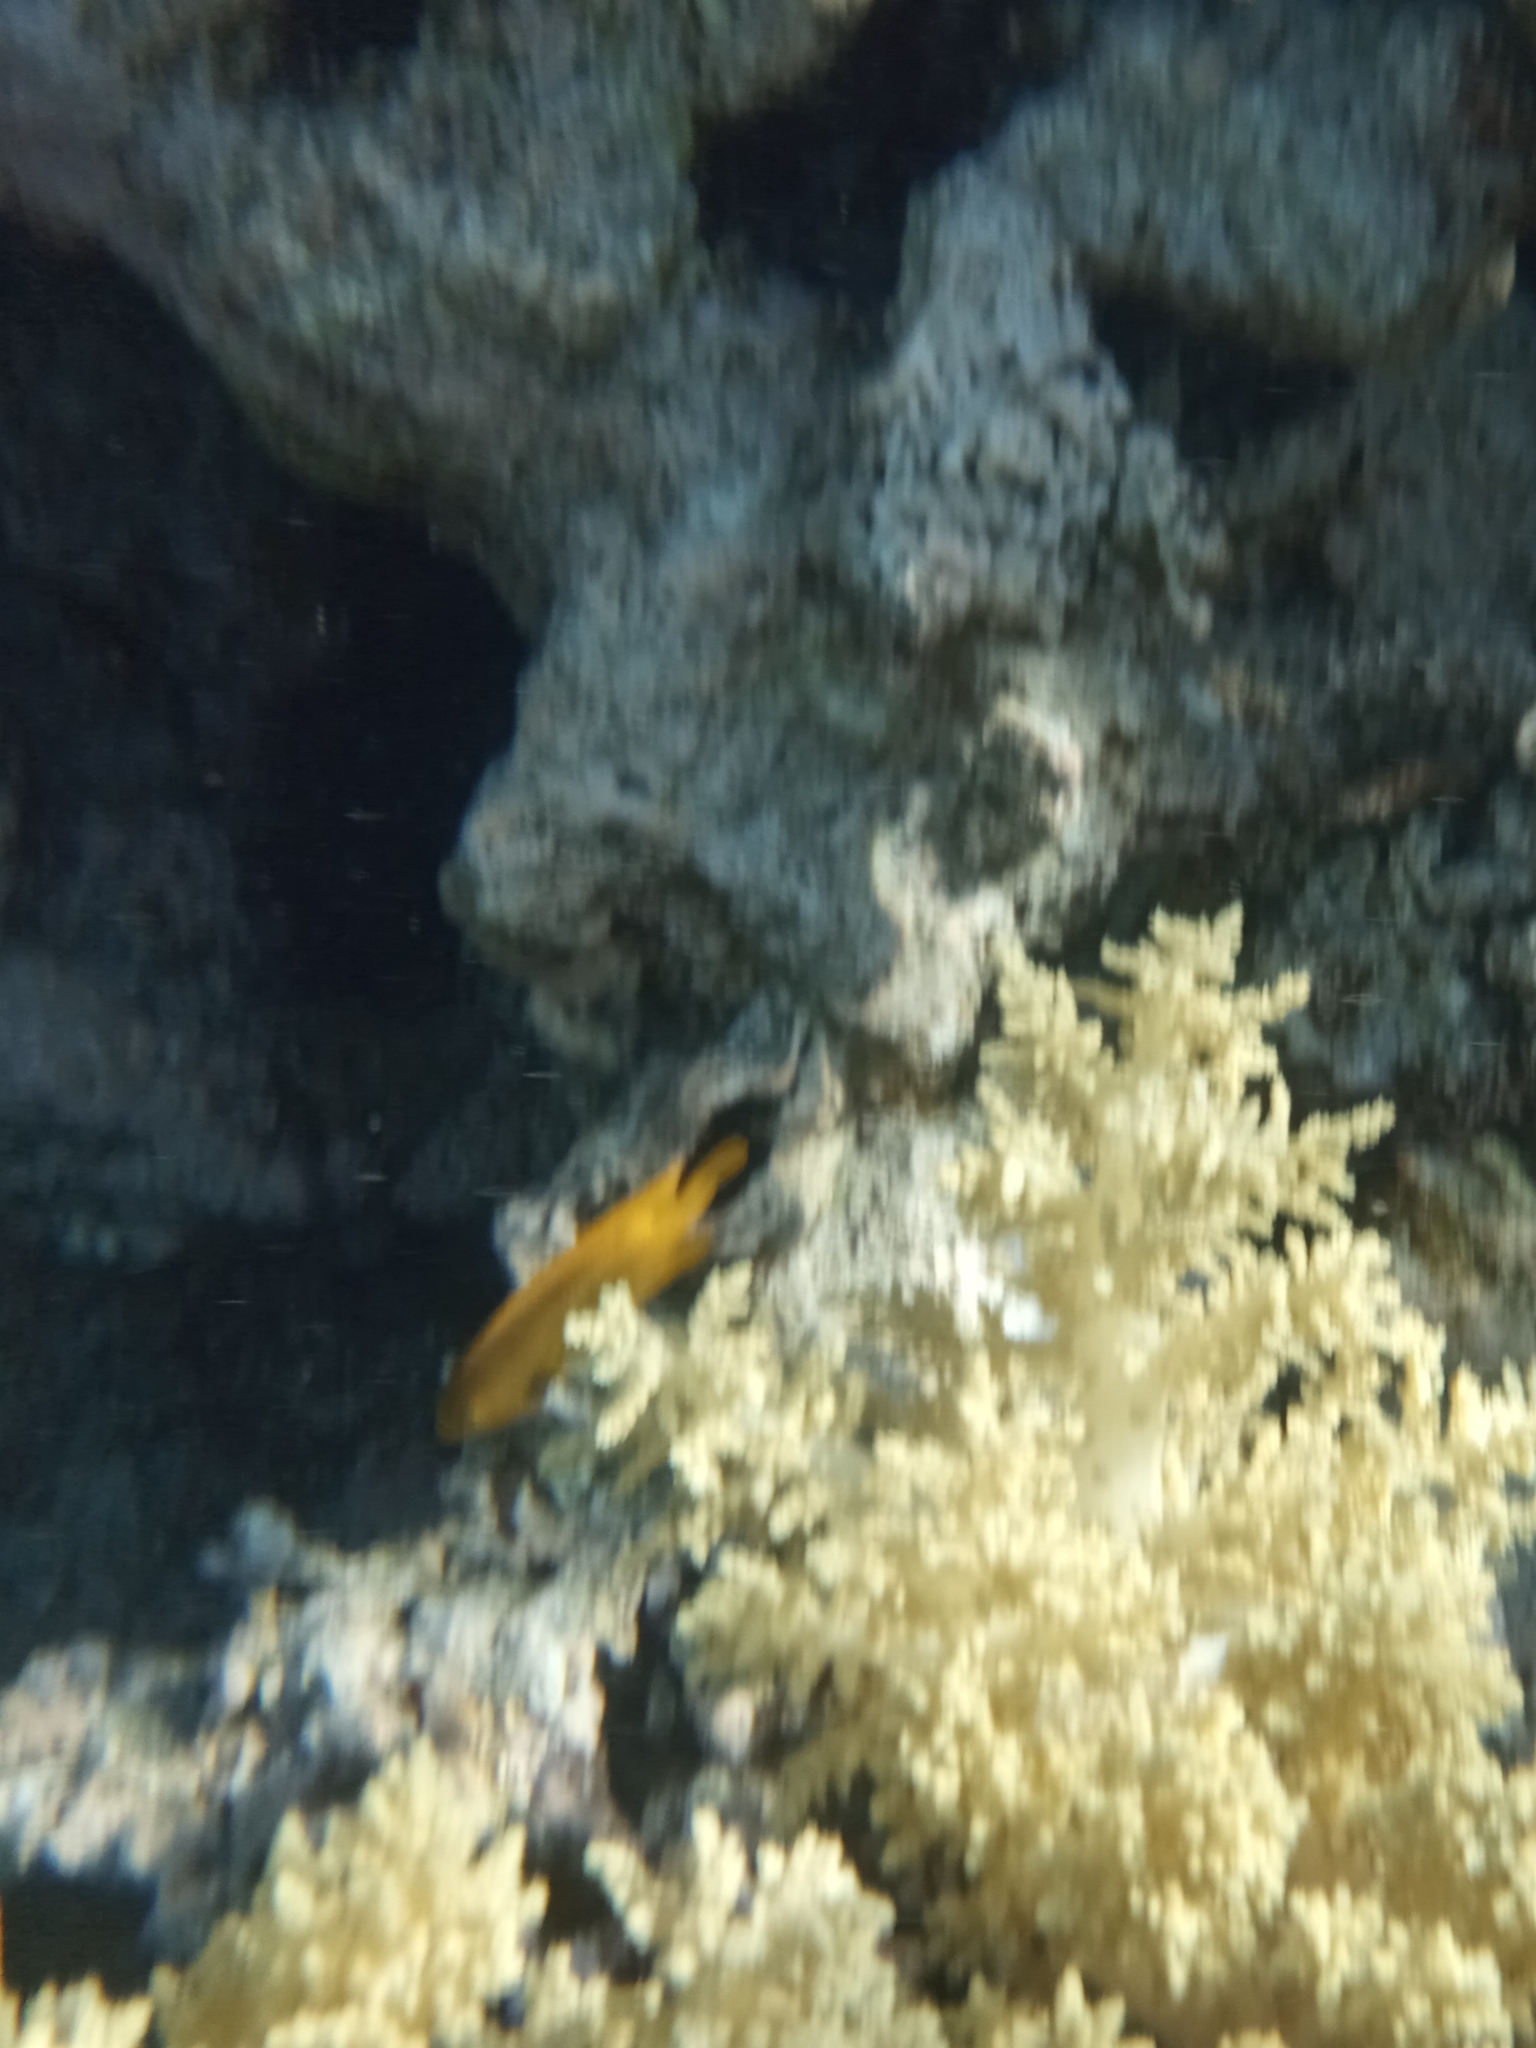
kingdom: Animalia
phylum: Chordata
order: Perciformes
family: Pomacentridae
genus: Pomacentrus
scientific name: Pomacentrus sulfureus
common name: Sulfur damsel
